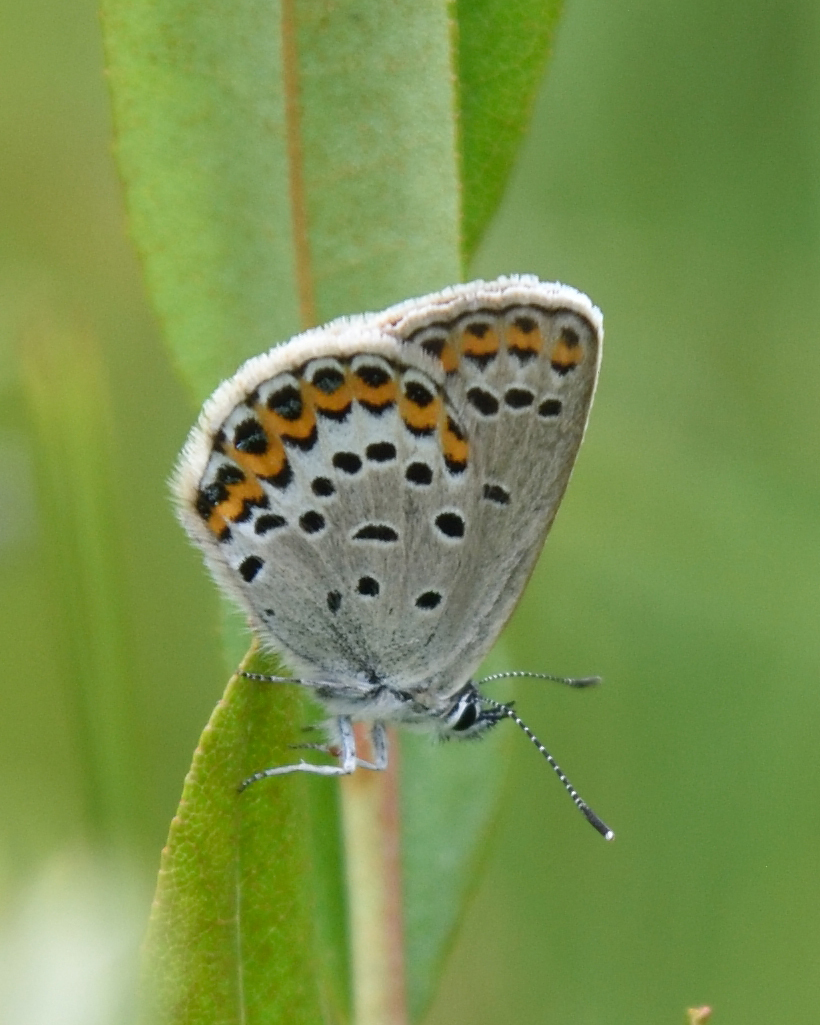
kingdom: Animalia
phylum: Arthropoda
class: Insecta
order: Lepidoptera
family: Lycaenidae
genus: Lycaeides
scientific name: Lycaeides idas
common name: Northern blue
